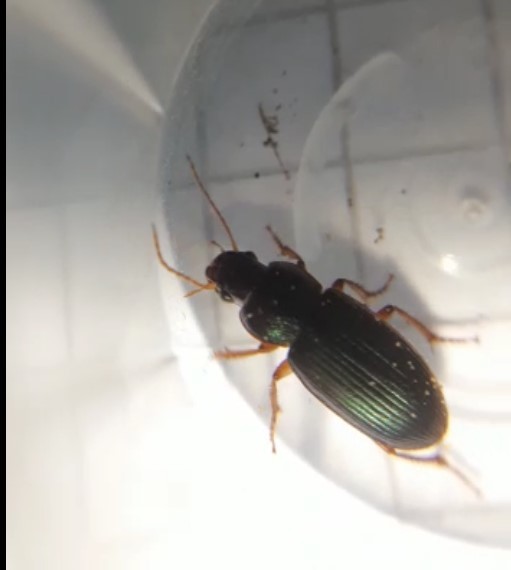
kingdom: Animalia
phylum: Arthropoda
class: Insecta
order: Coleoptera
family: Carabidae
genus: Ophonus
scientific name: Ophonus azureus
